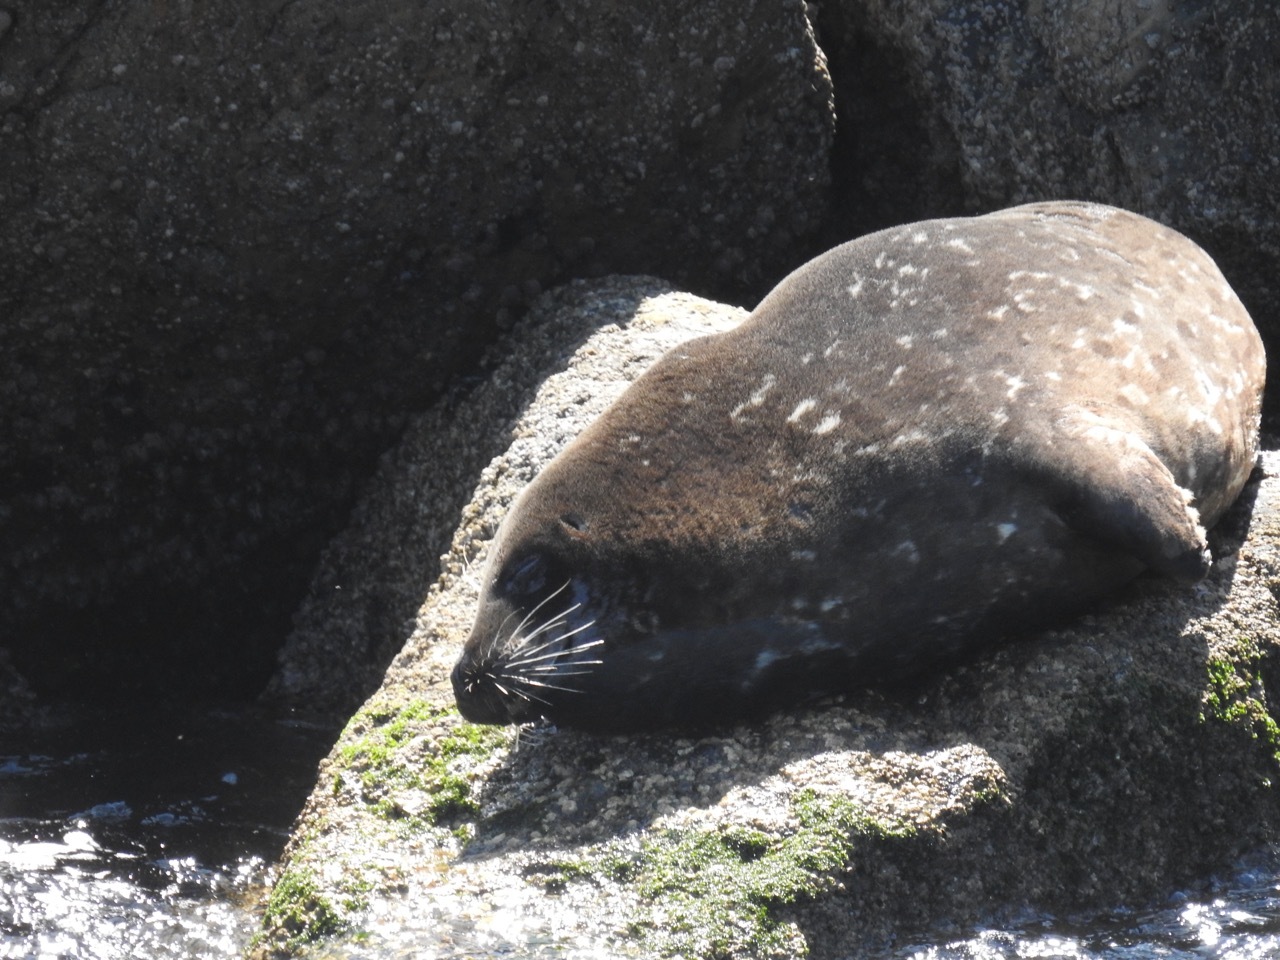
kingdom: Animalia
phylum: Chordata
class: Mammalia
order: Carnivora
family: Phocidae
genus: Phoca
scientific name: Phoca vitulina
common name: Harbor seal
